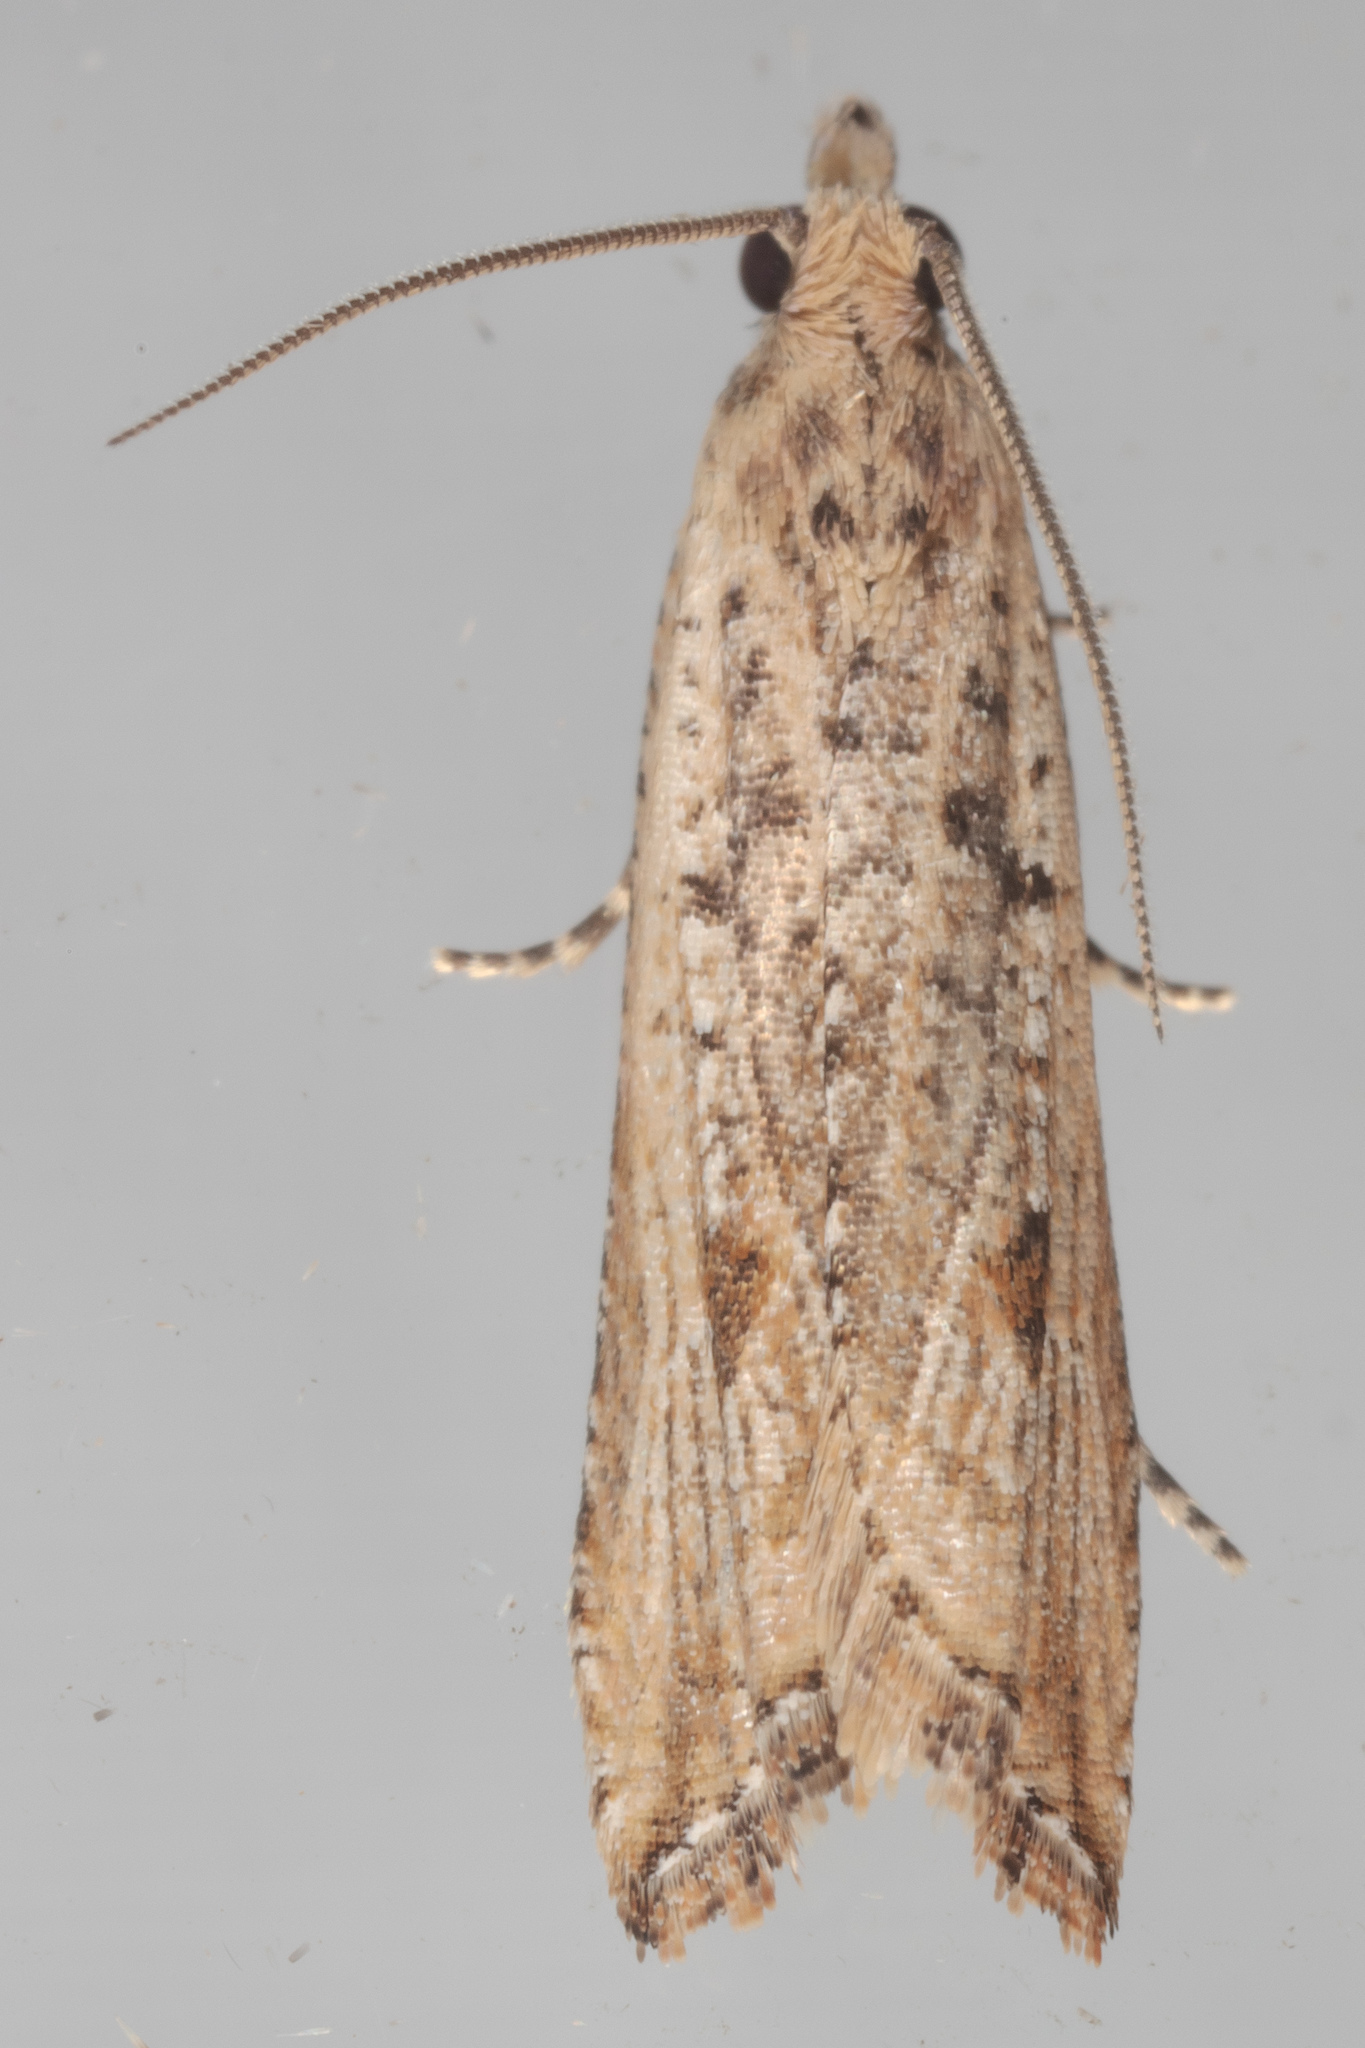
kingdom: Animalia
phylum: Arthropoda
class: Insecta
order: Lepidoptera
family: Tortricidae
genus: Bactra
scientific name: Bactra verutana
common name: Javelin moth
